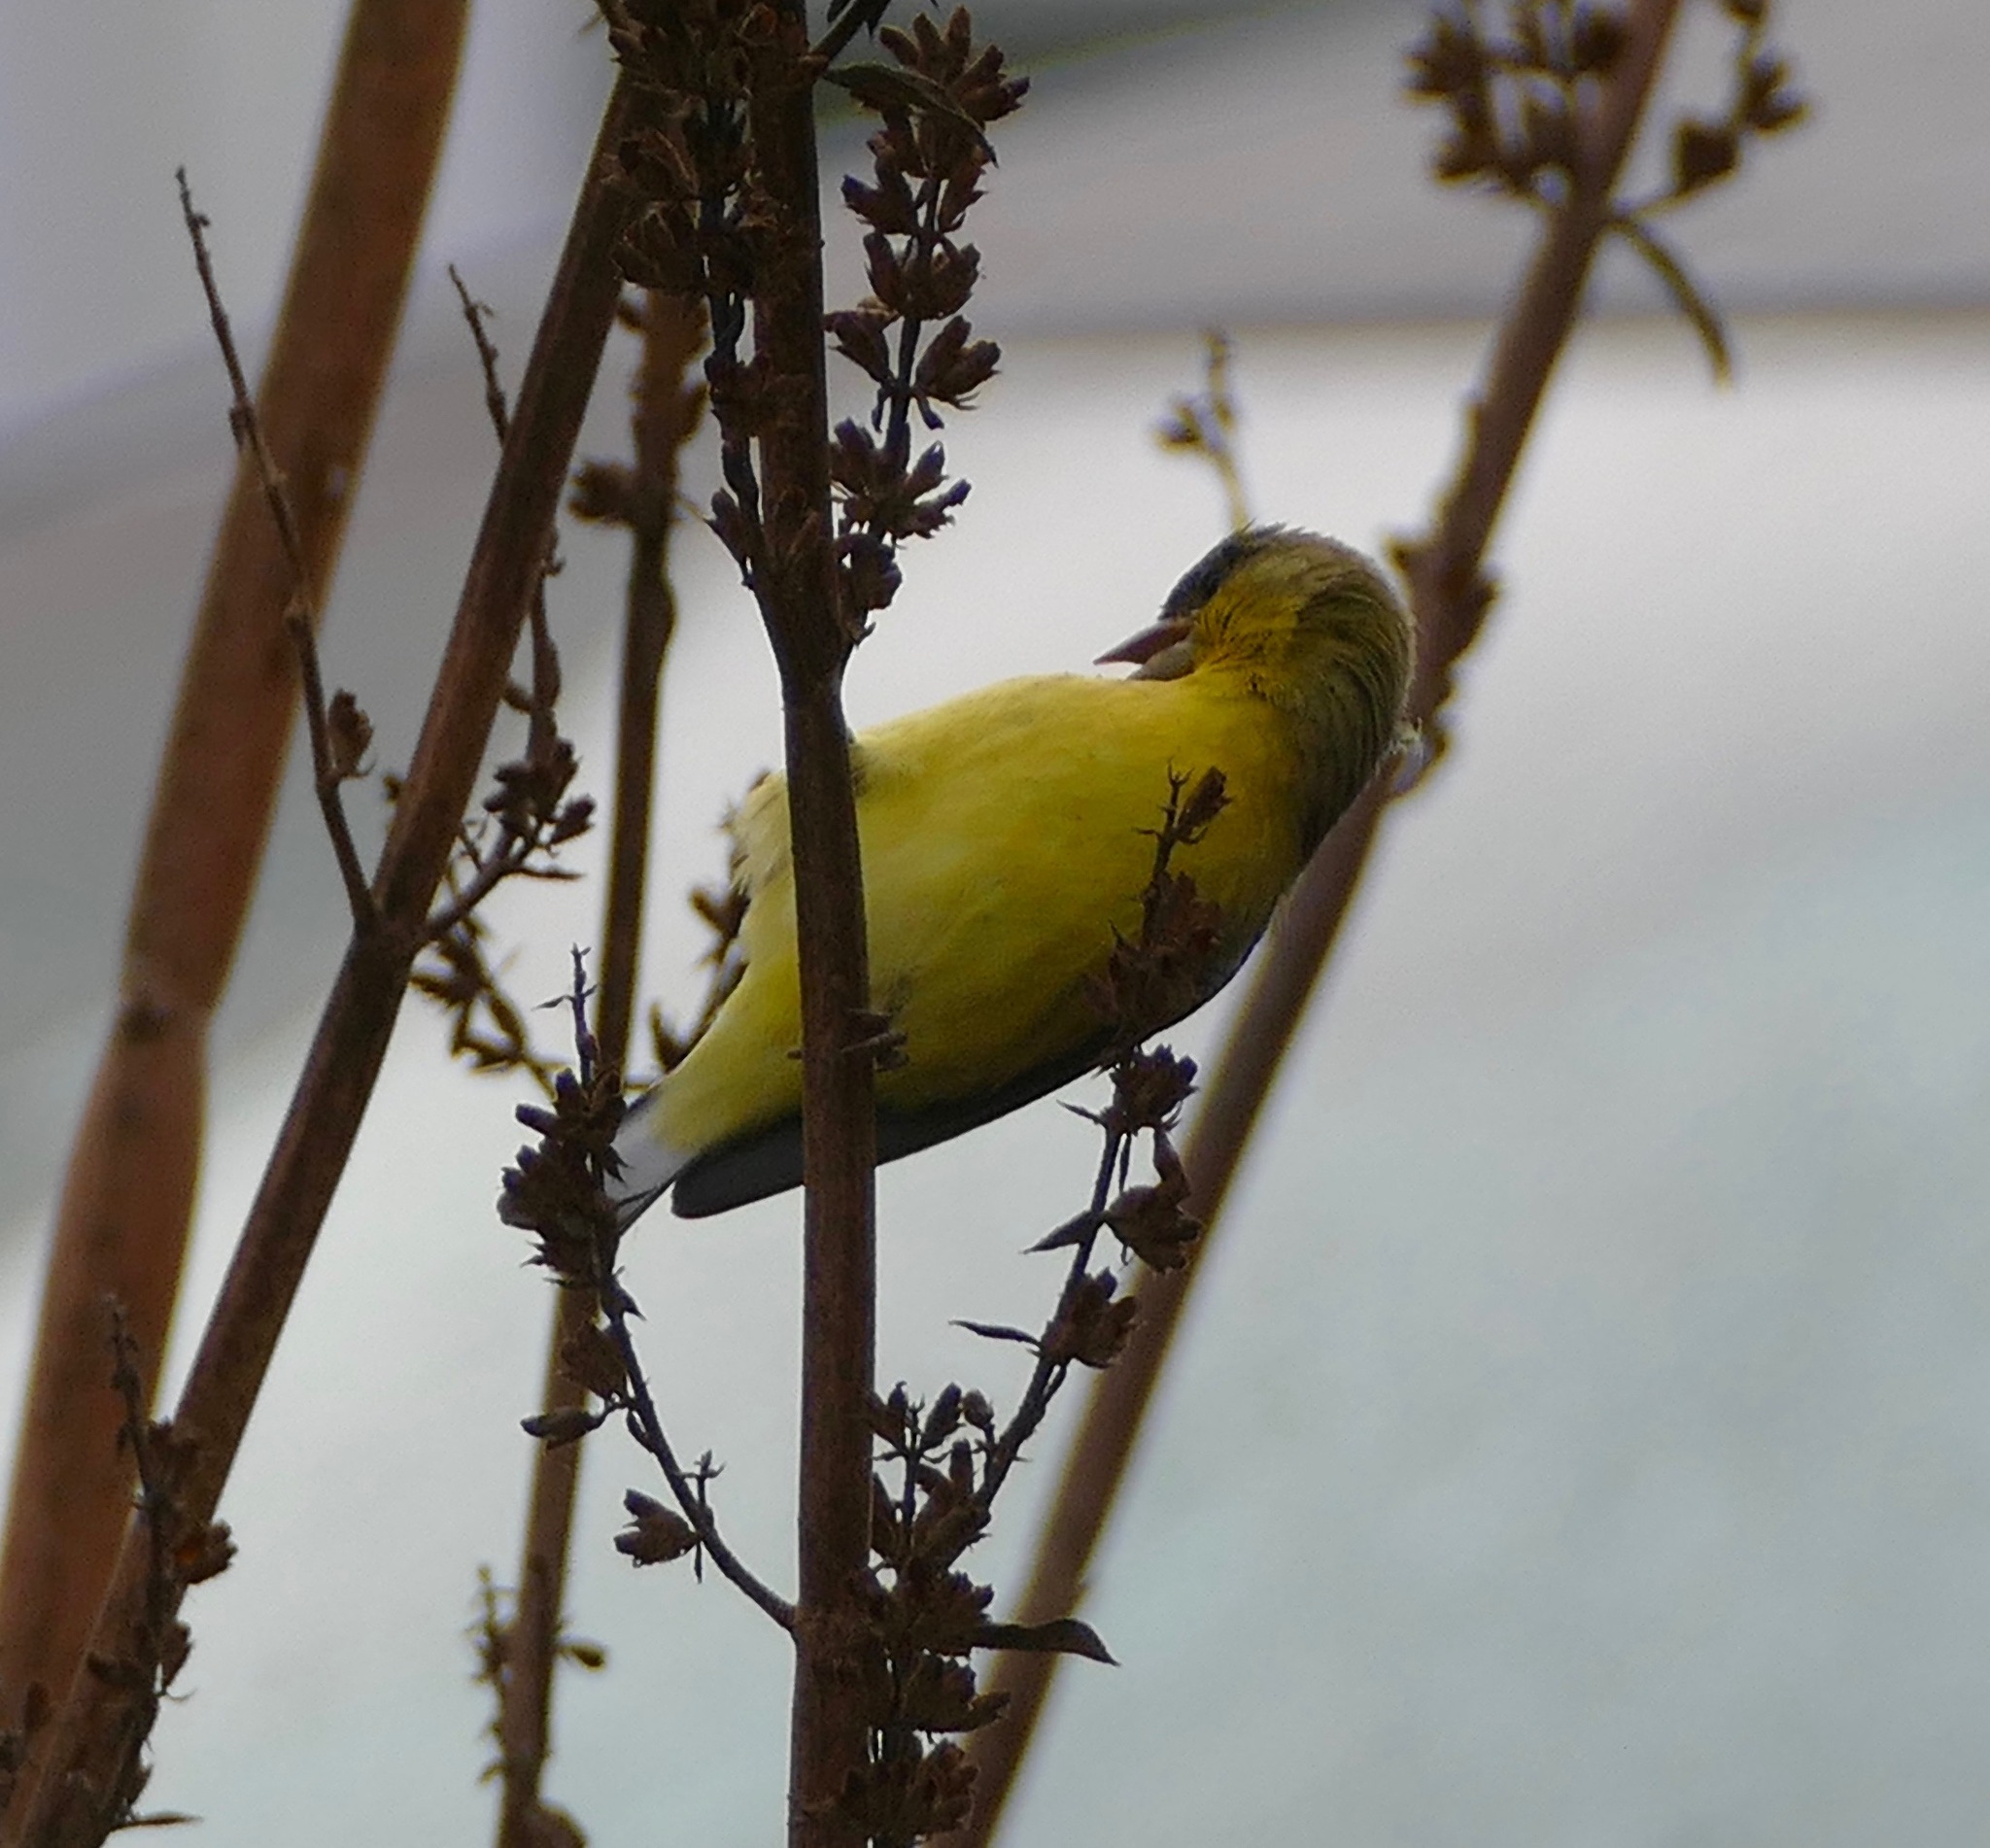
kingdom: Animalia
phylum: Chordata
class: Aves
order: Passeriformes
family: Fringillidae
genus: Spinus
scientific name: Spinus psaltria
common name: Lesser goldfinch
